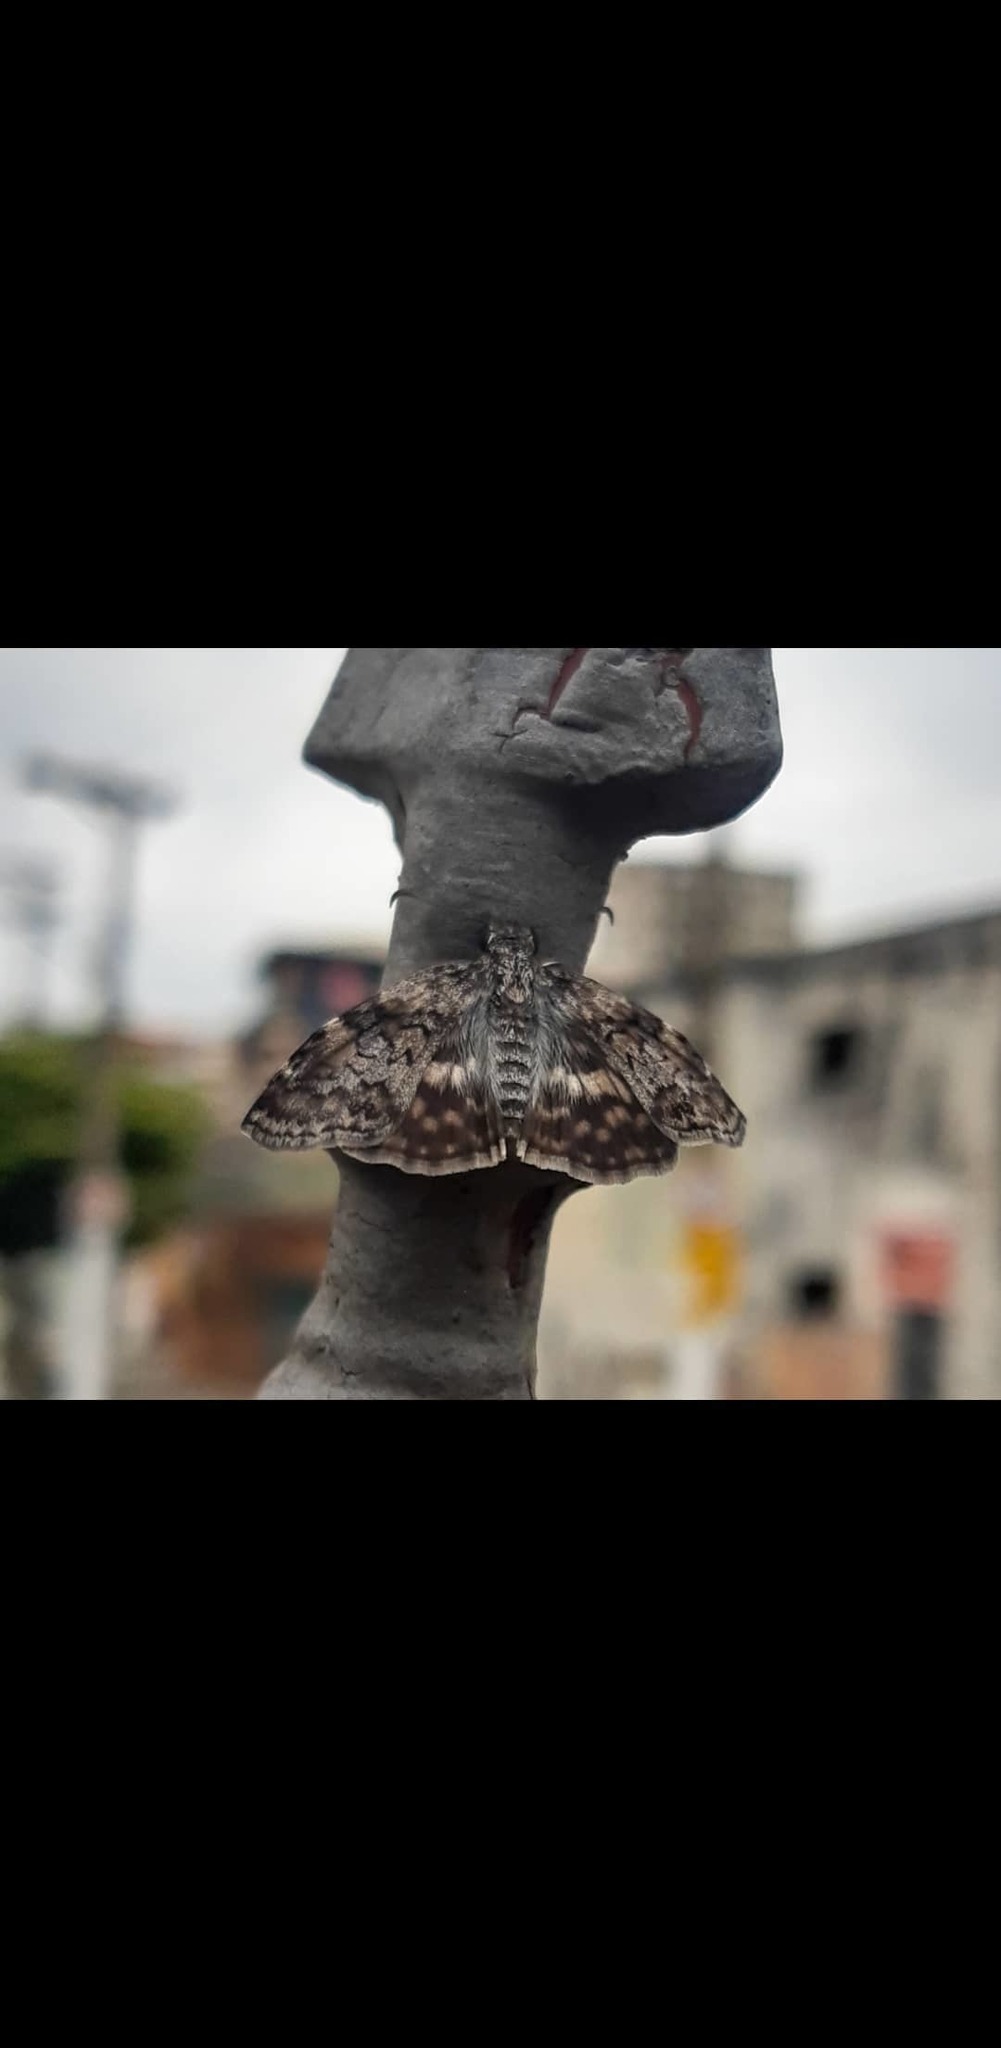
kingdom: Animalia
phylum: Arthropoda
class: Insecta
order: Lepidoptera
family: Hesperiidae
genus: Chiomara
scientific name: Chiomara asychis
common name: White-patterned skipper
